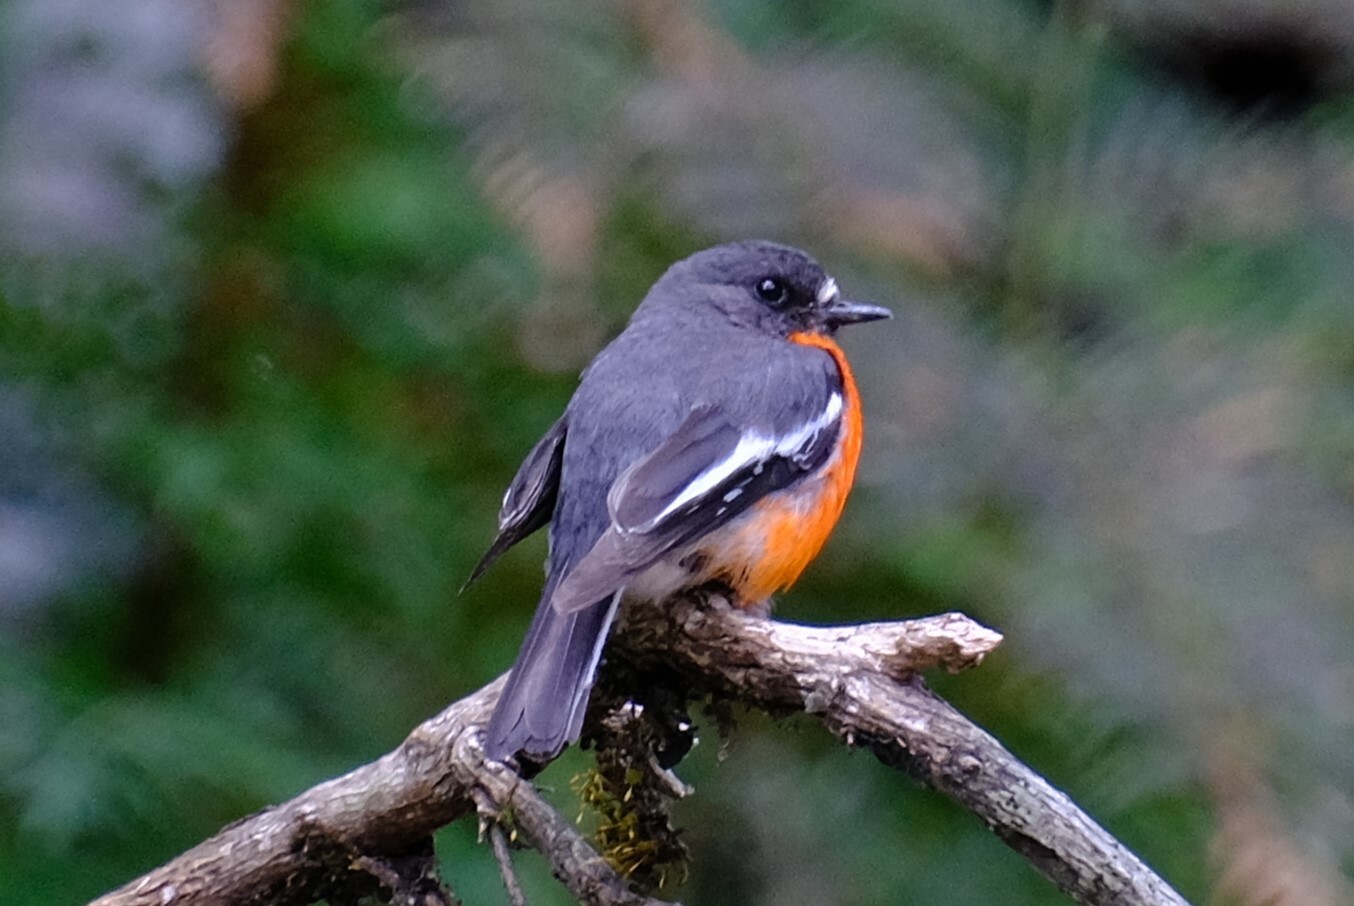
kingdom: Animalia
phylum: Chordata
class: Aves
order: Passeriformes
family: Petroicidae
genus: Petroica
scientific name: Petroica phoenicea
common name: Flame robin
